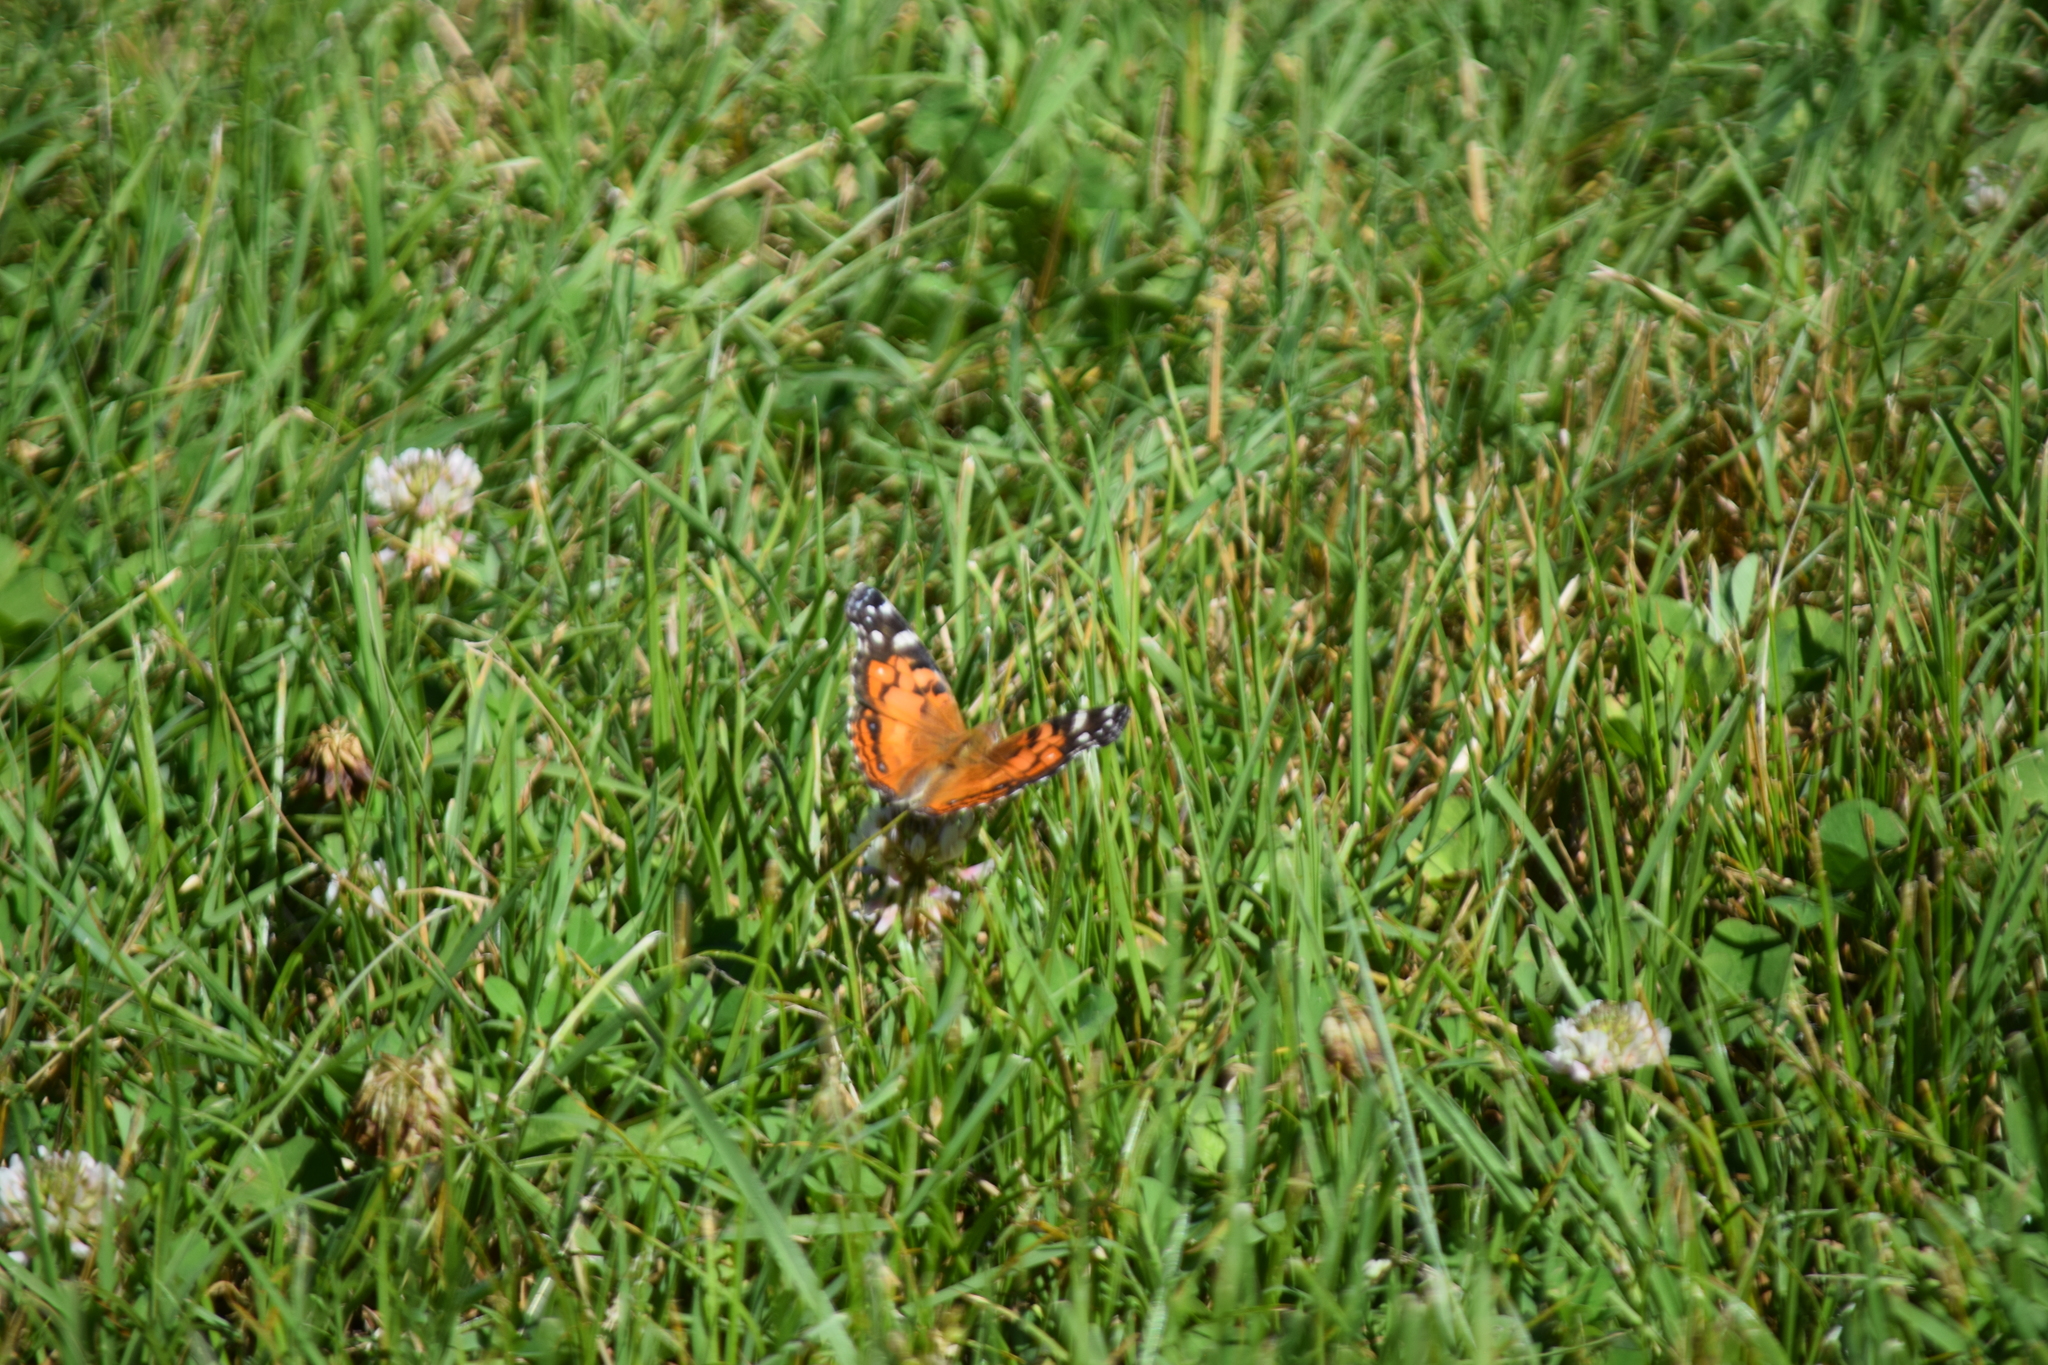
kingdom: Animalia
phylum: Arthropoda
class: Insecta
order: Lepidoptera
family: Nymphalidae
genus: Vanessa
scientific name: Vanessa virginiensis
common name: American lady
